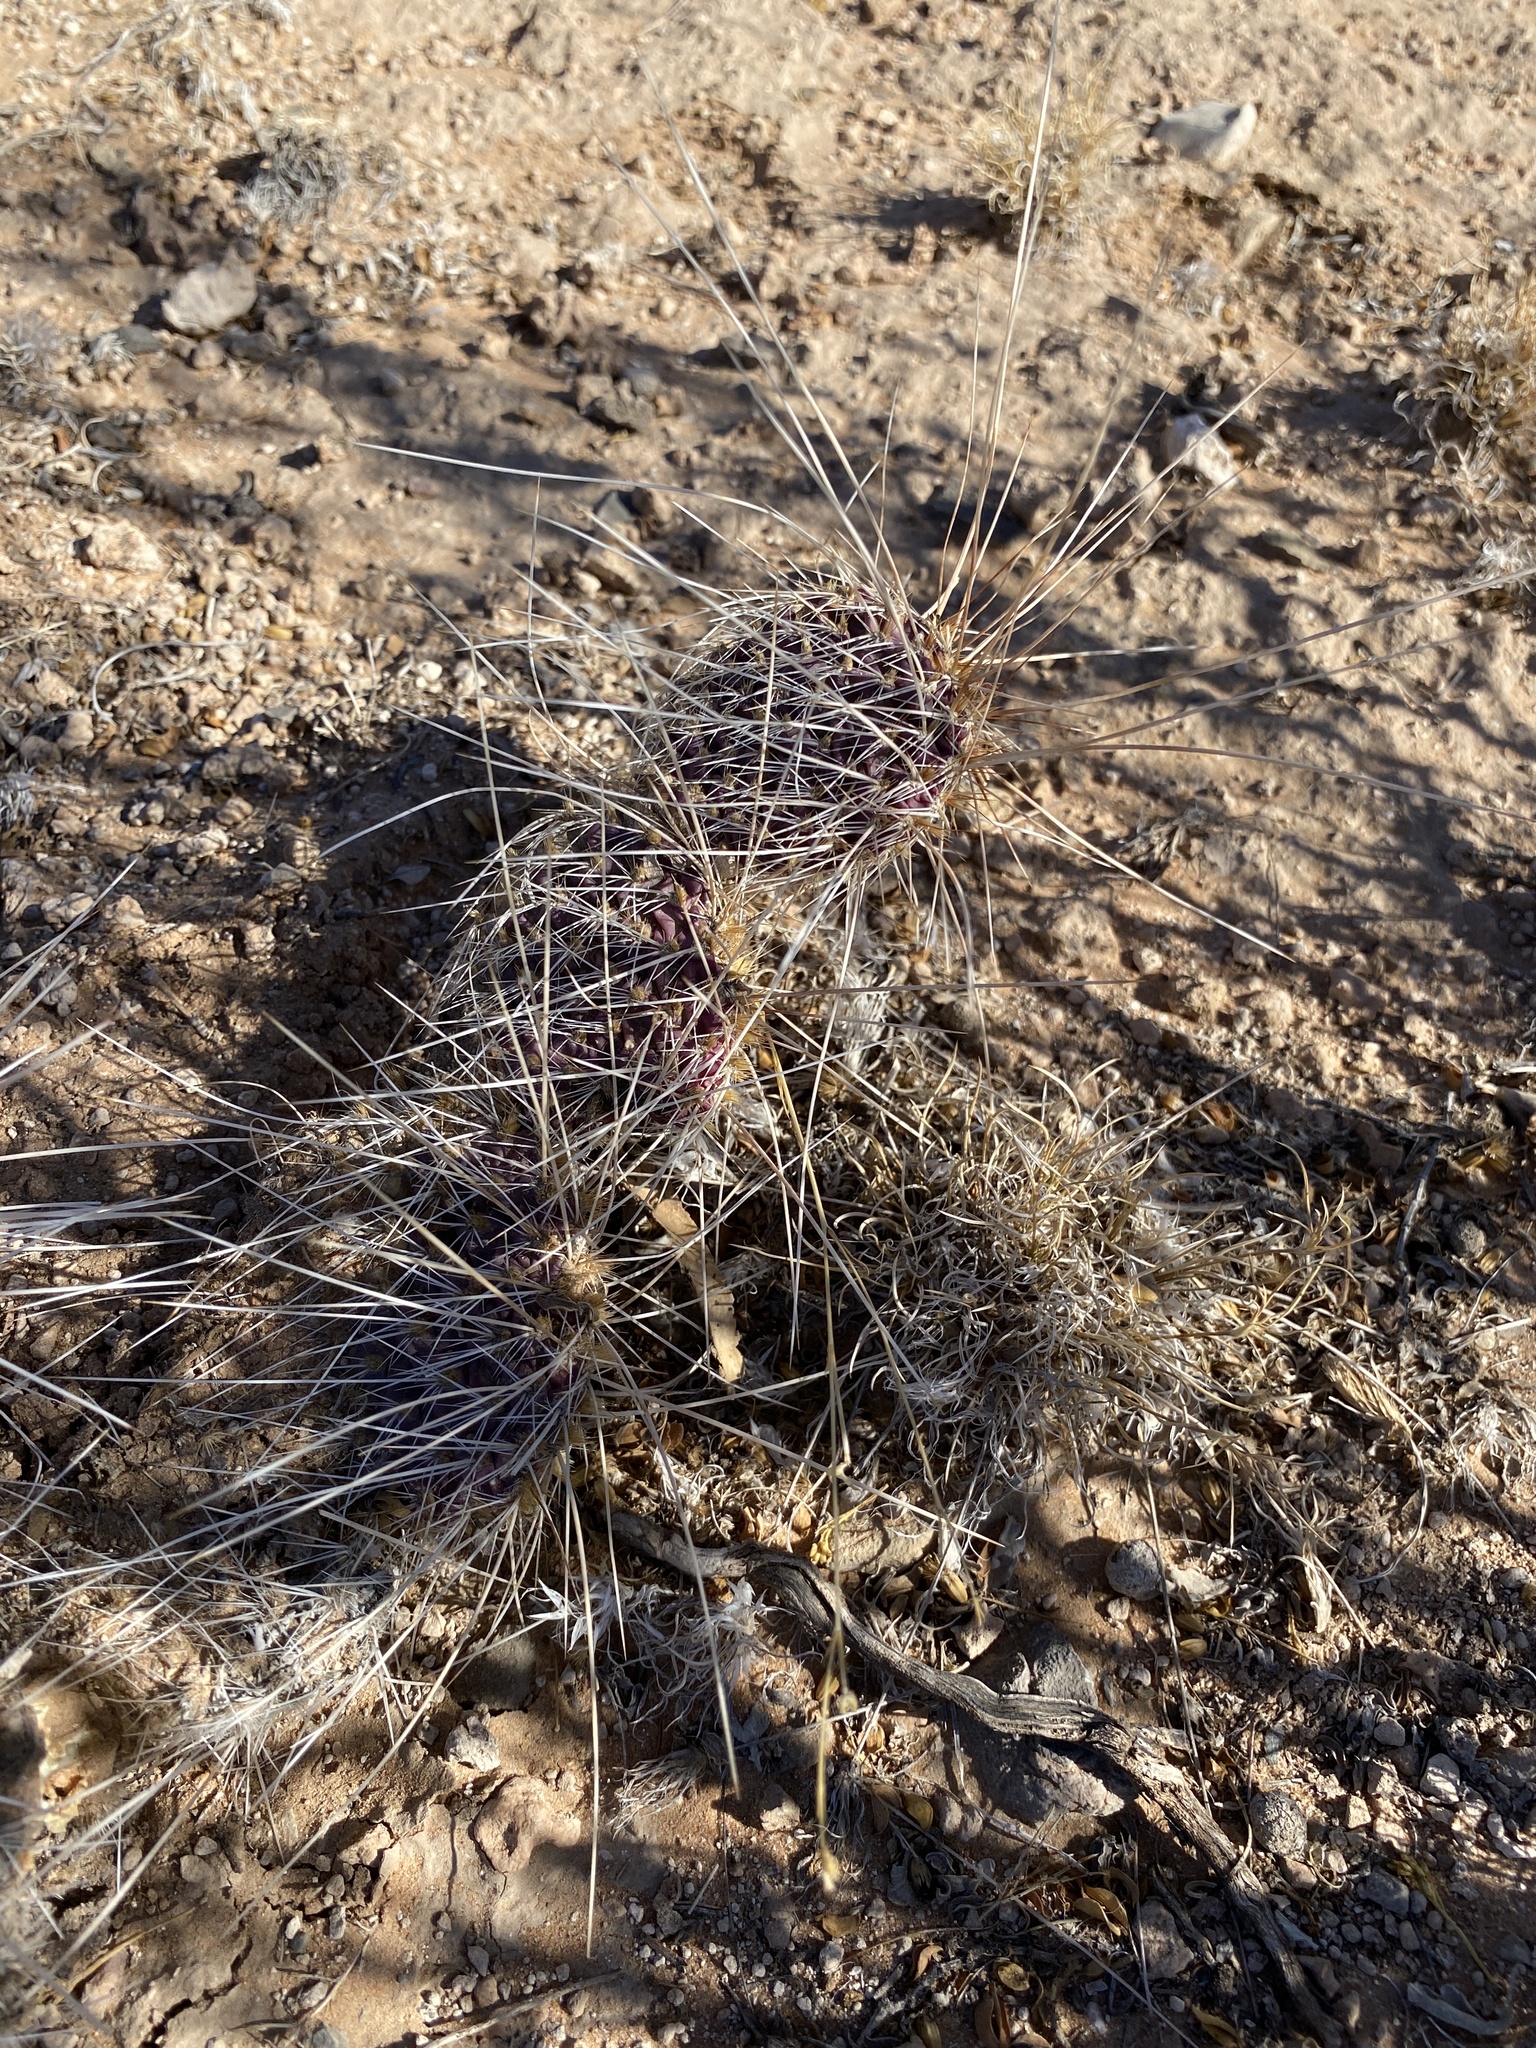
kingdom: Plantae
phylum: Tracheophyta
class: Magnoliopsida
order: Caryophyllales
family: Cactaceae
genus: Opuntia
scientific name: Opuntia polyacantha
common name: Plains prickly-pear
